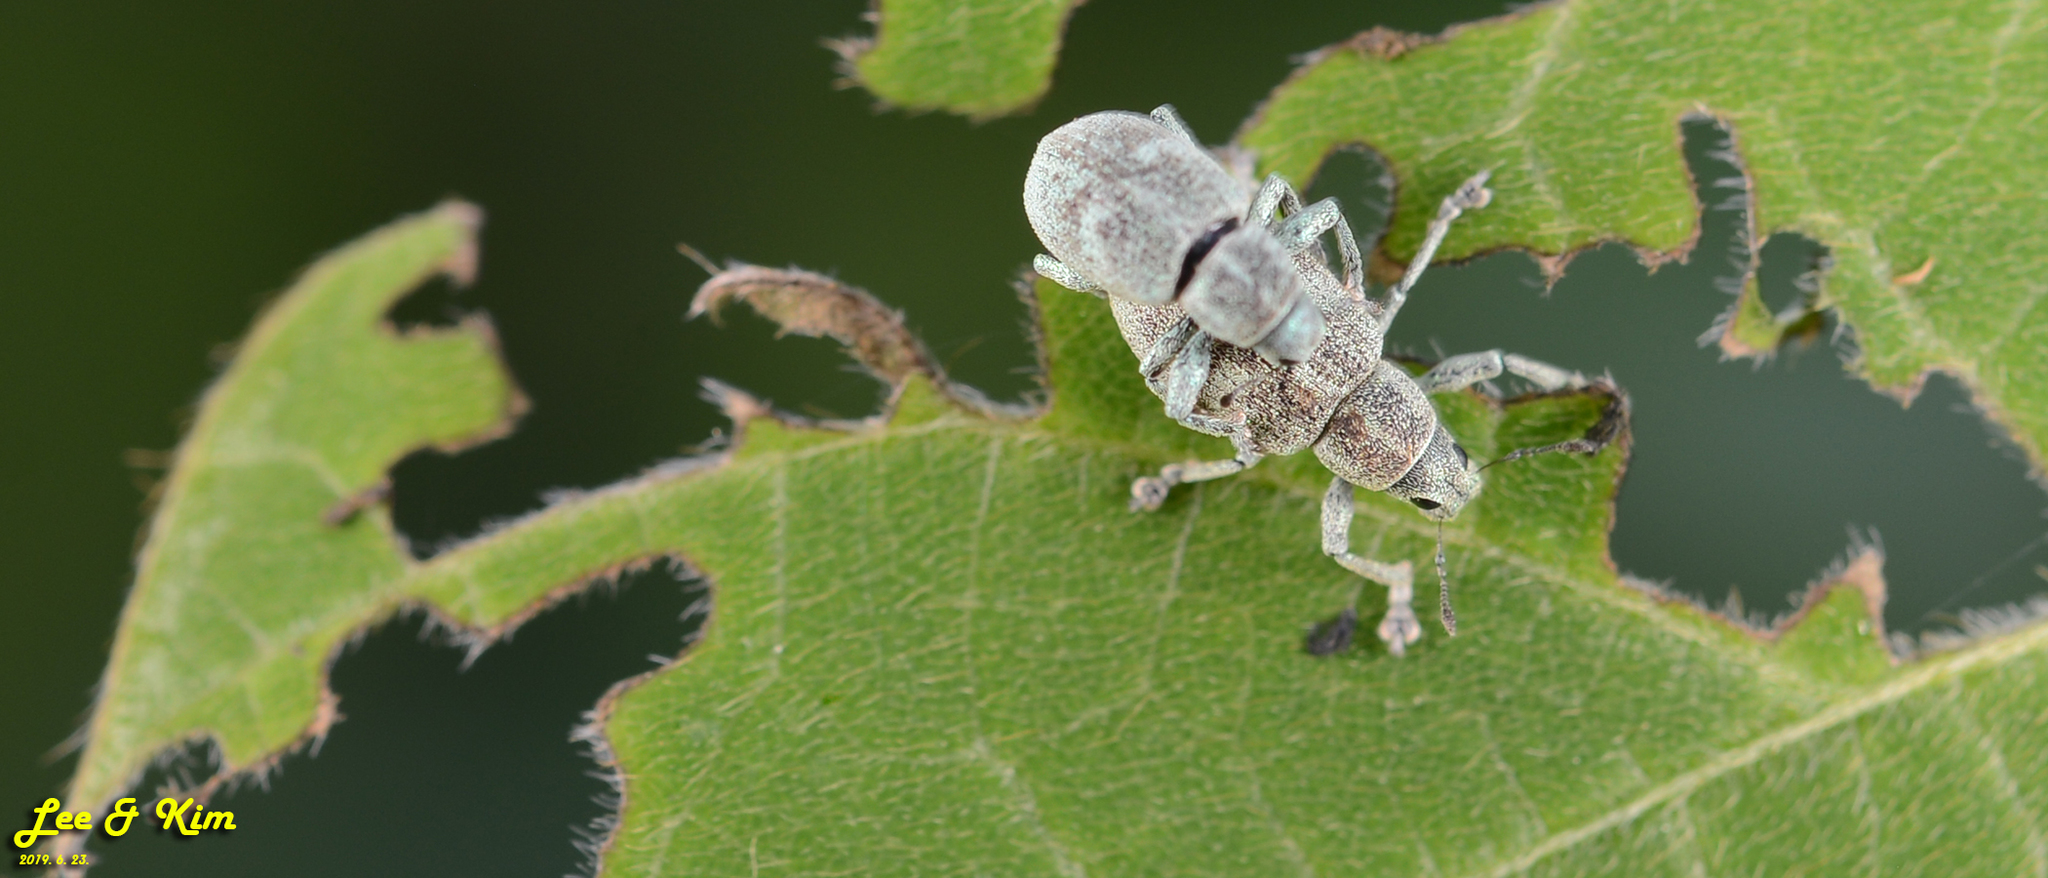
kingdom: Animalia
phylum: Arthropoda
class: Insecta
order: Coleoptera
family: Curculionidae
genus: Eugnathus
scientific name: Eugnathus distinctus
